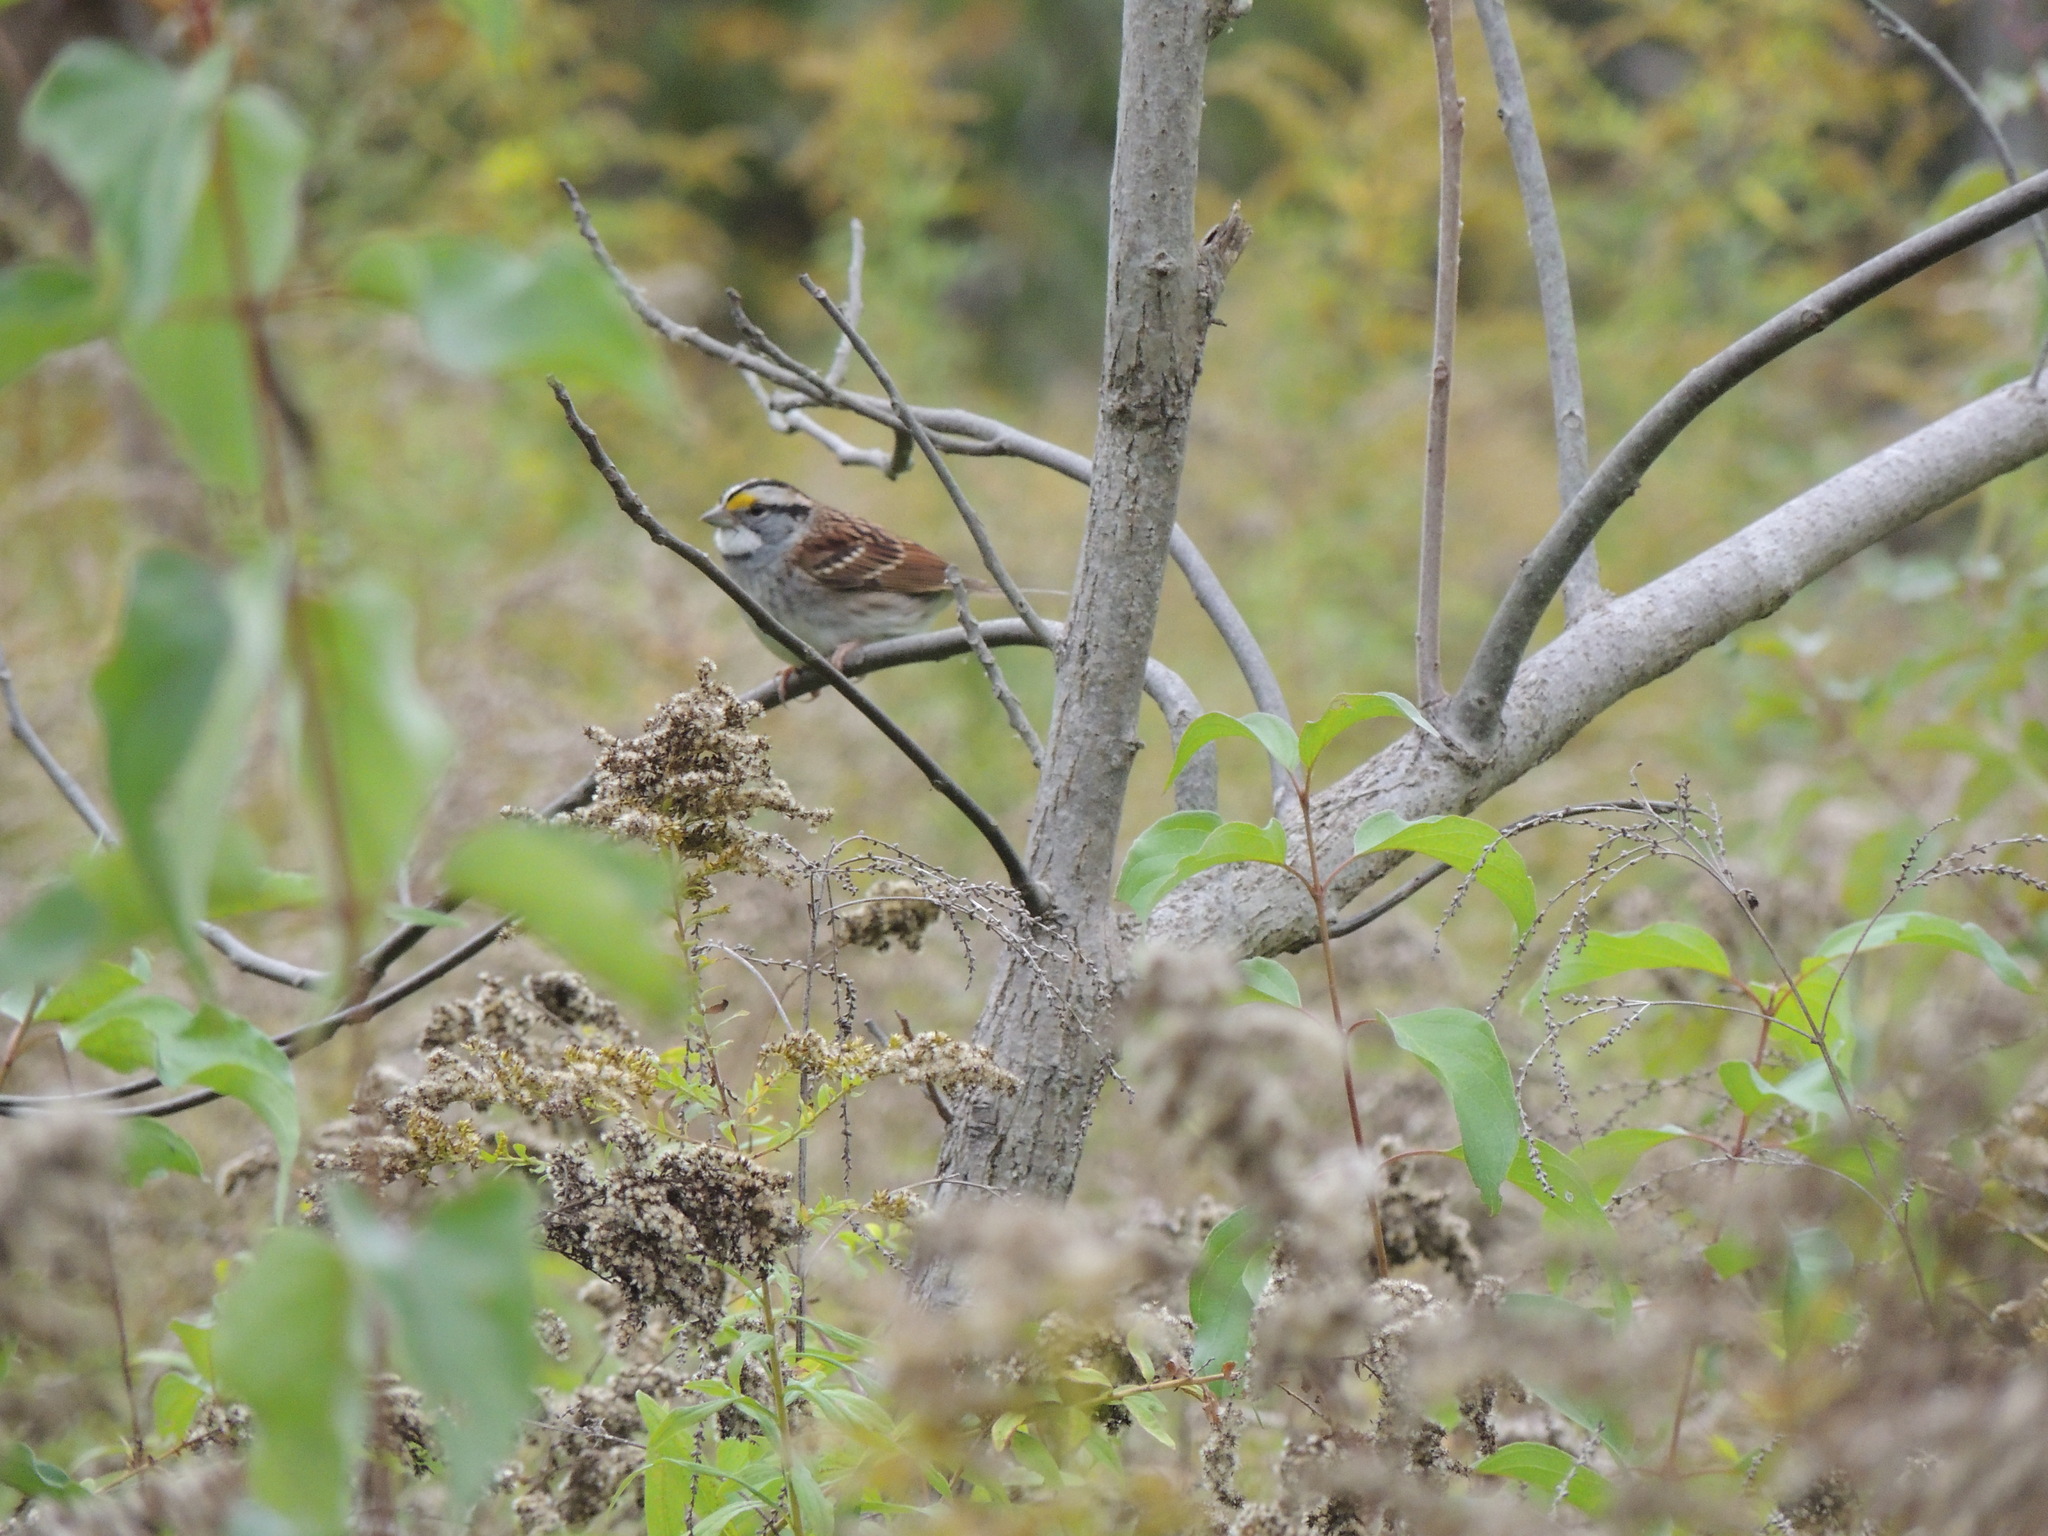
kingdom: Animalia
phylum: Chordata
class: Aves
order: Passeriformes
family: Passerellidae
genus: Zonotrichia
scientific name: Zonotrichia albicollis
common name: White-throated sparrow
